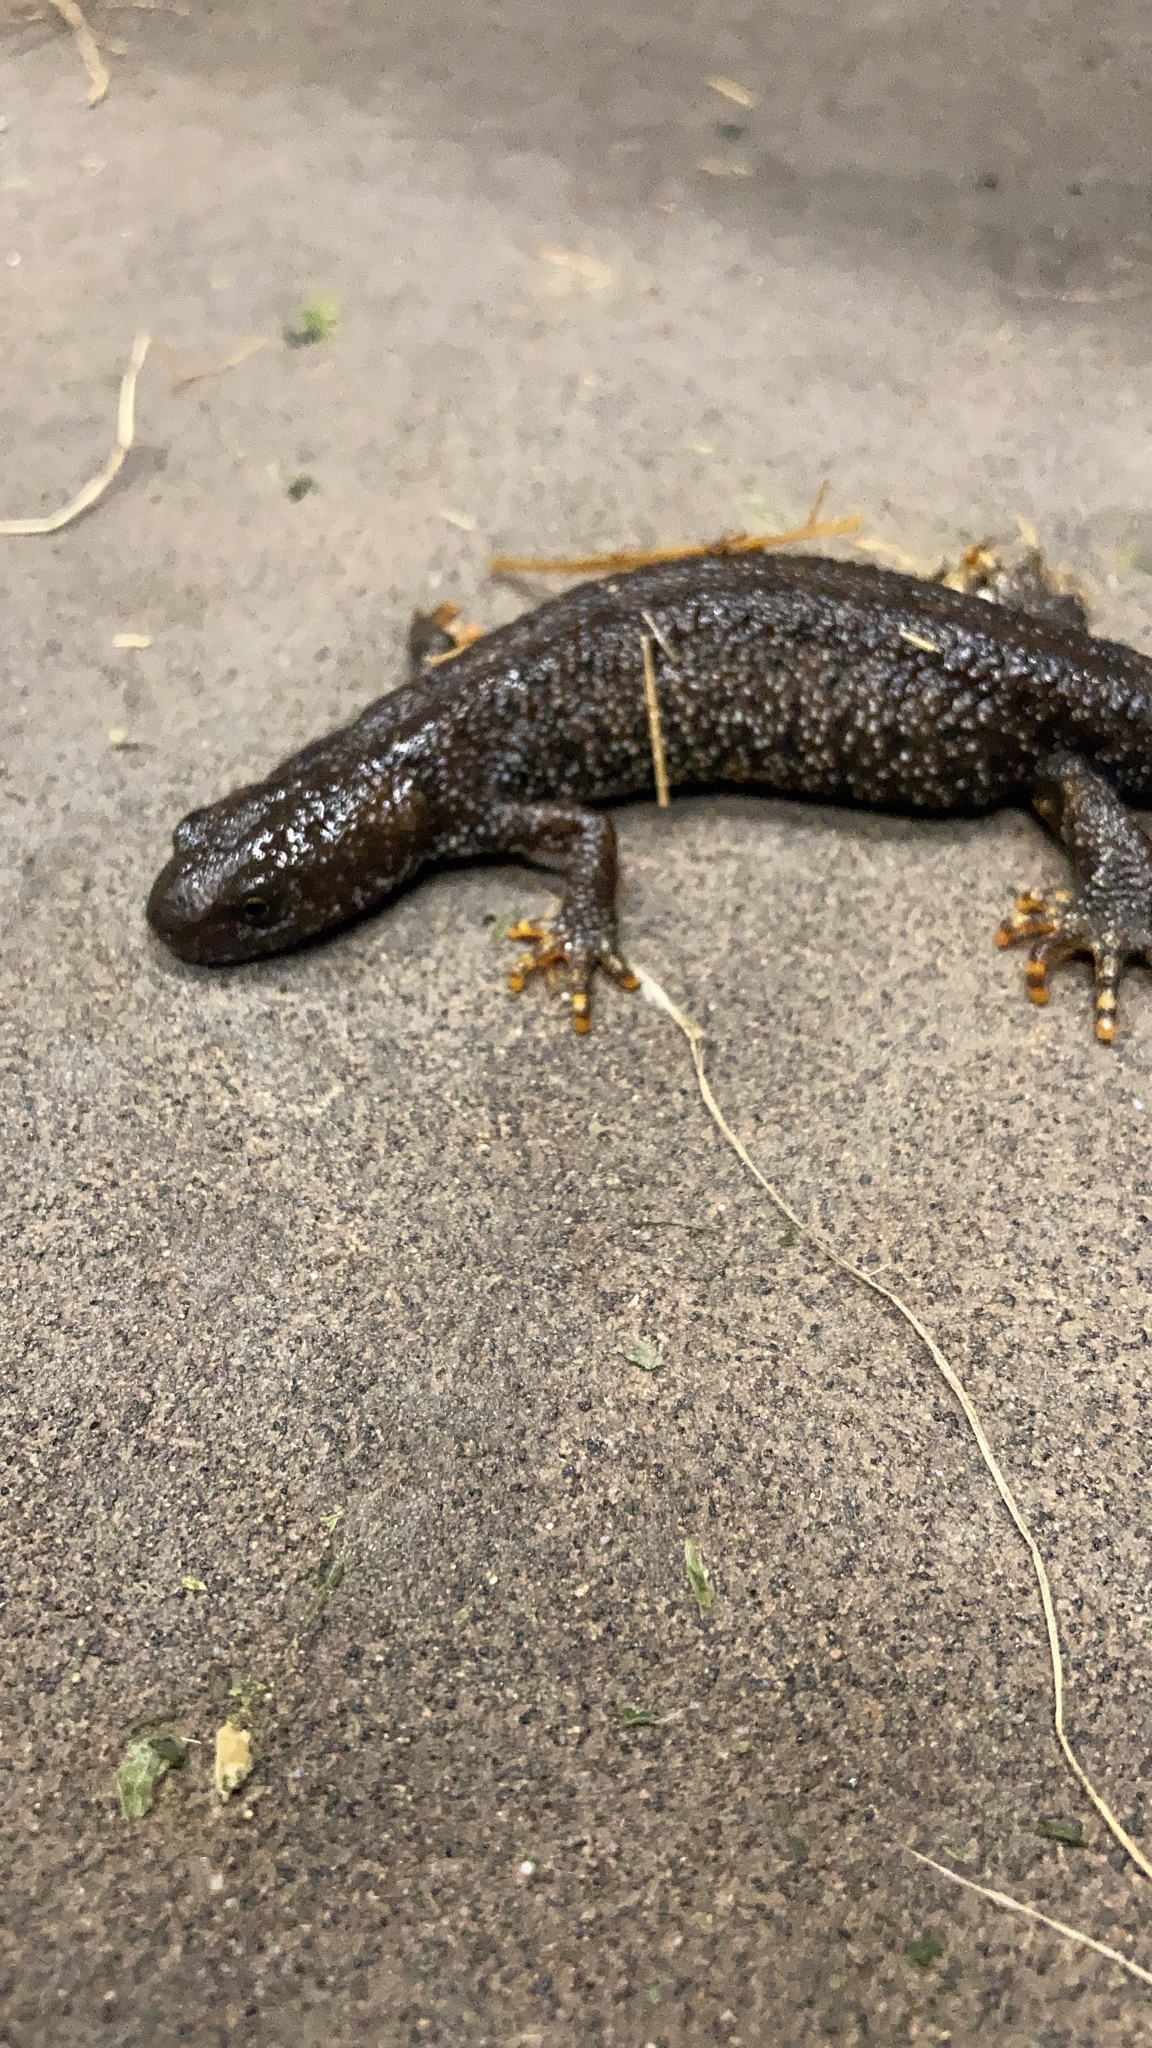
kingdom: Animalia
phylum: Chordata
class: Amphibia
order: Caudata
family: Salamandridae
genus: Triturus
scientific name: Triturus cristatus
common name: Crested newt
